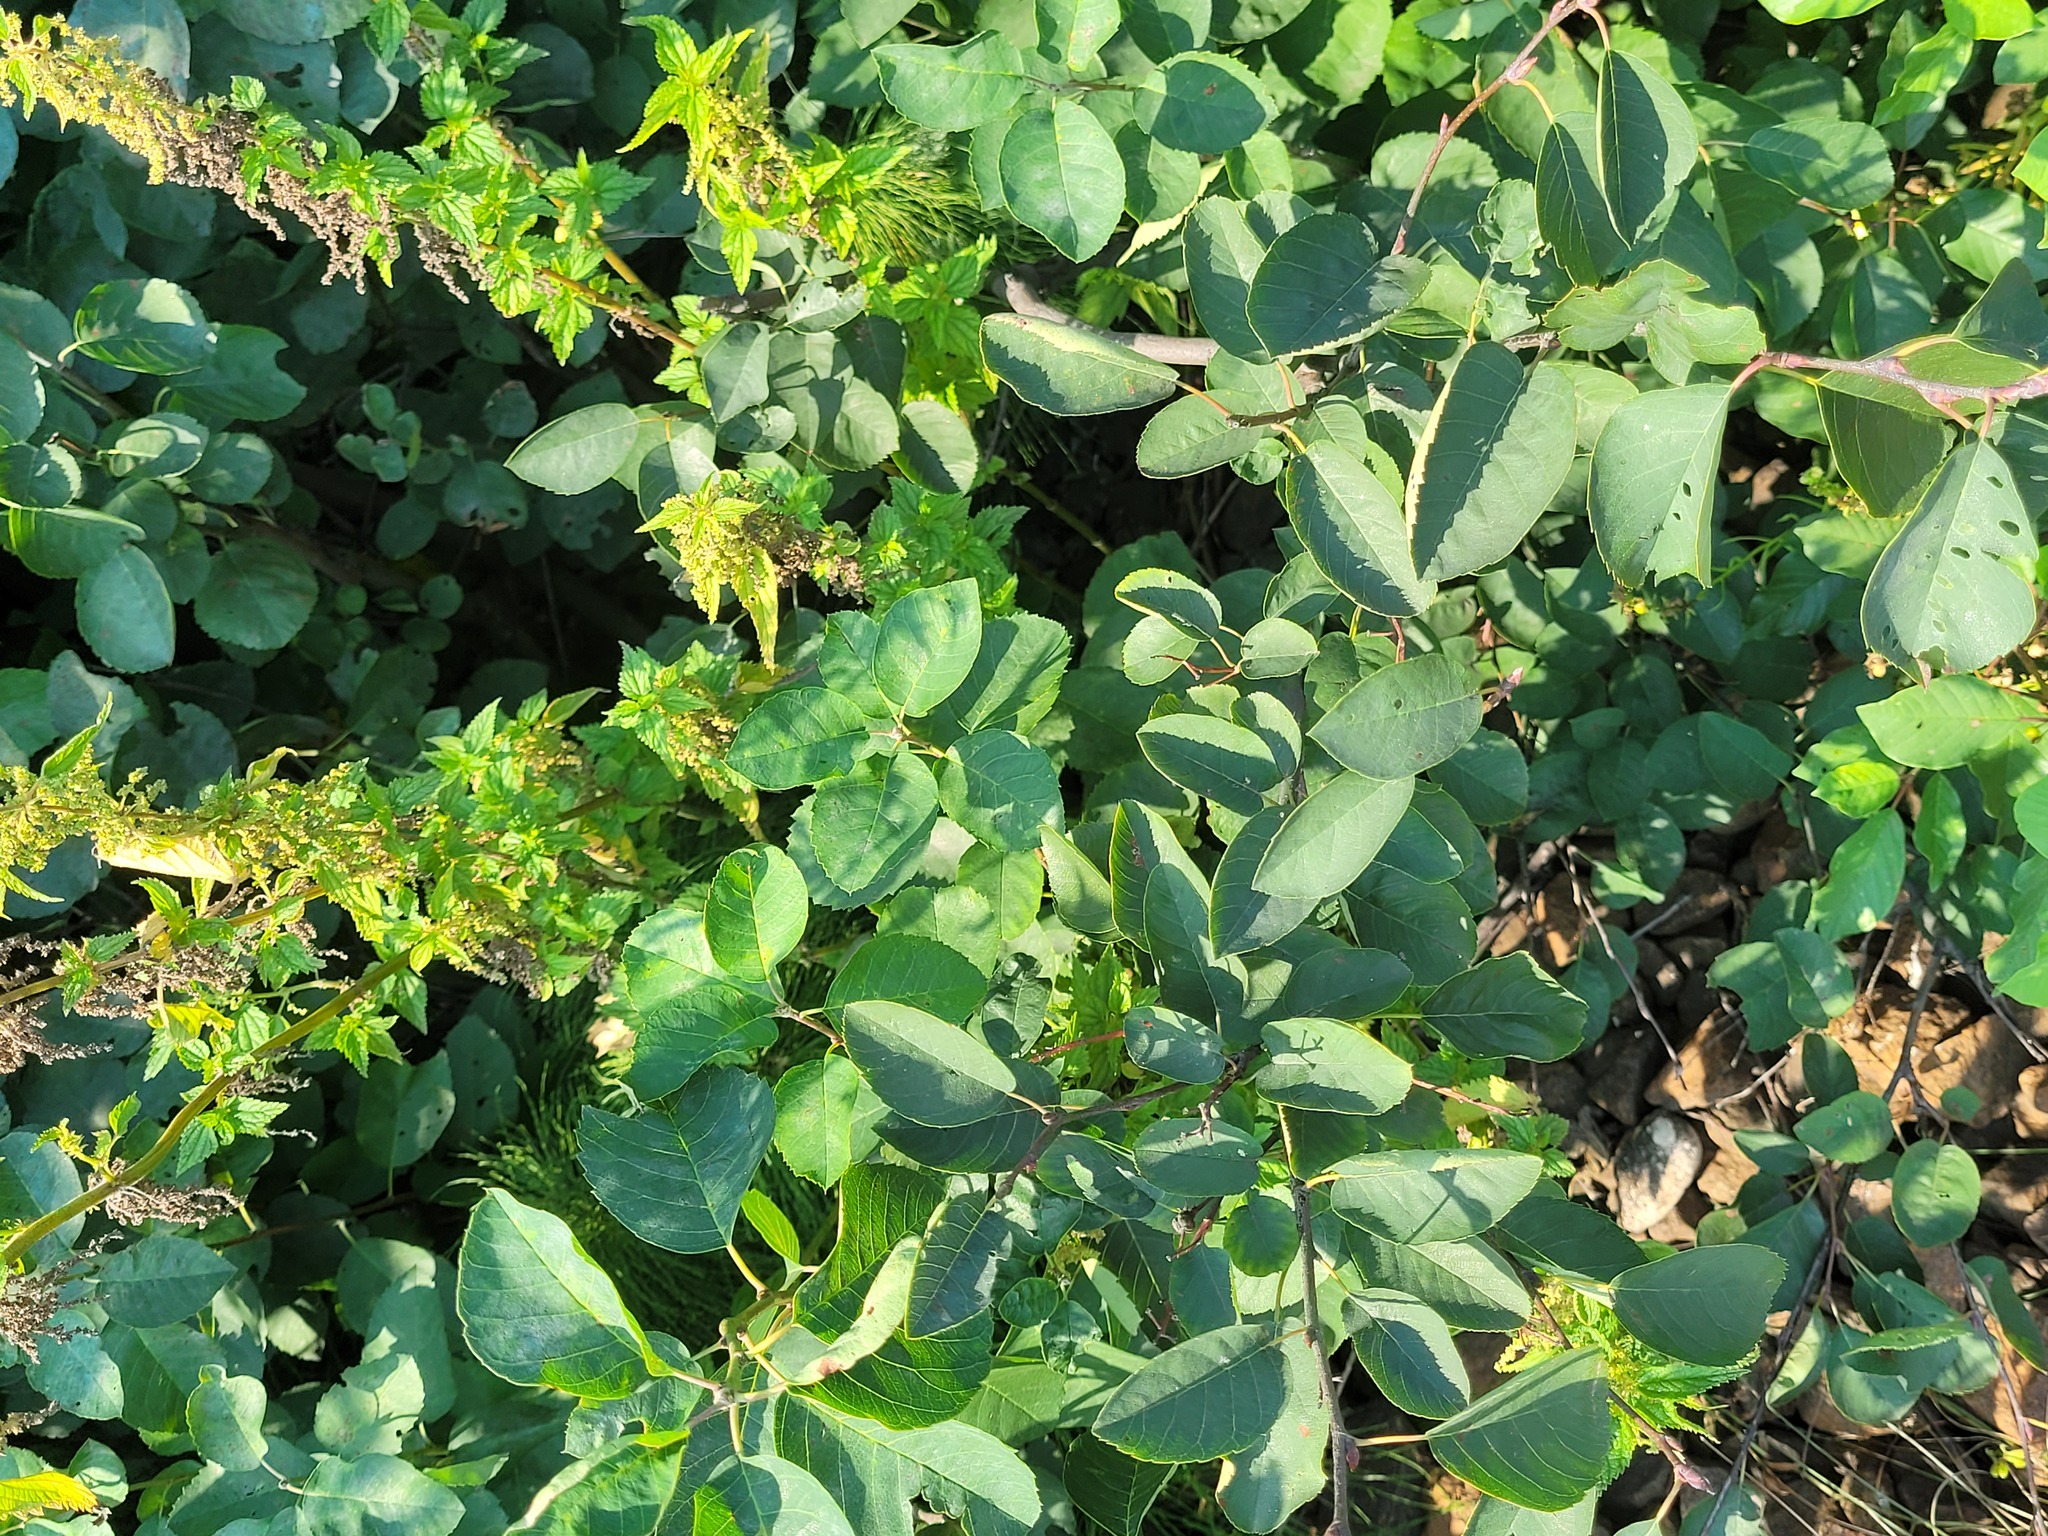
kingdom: Plantae
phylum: Tracheophyta
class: Magnoliopsida
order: Rosales
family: Rosaceae
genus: Amelanchier
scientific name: Amelanchier
